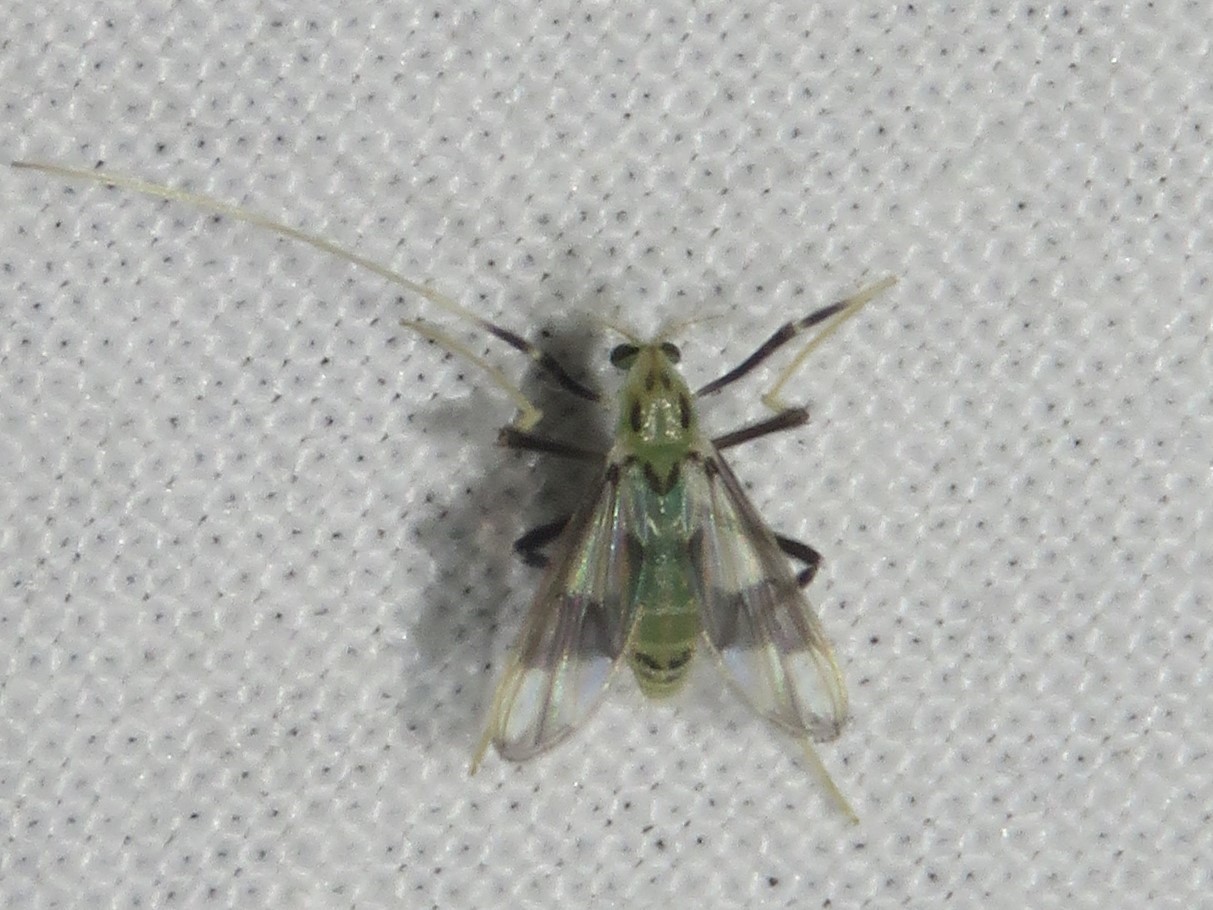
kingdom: Animalia
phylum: Arthropoda
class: Insecta
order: Diptera
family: Chironomidae
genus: Stenochironomus
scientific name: Stenochironomus poecilopterus
